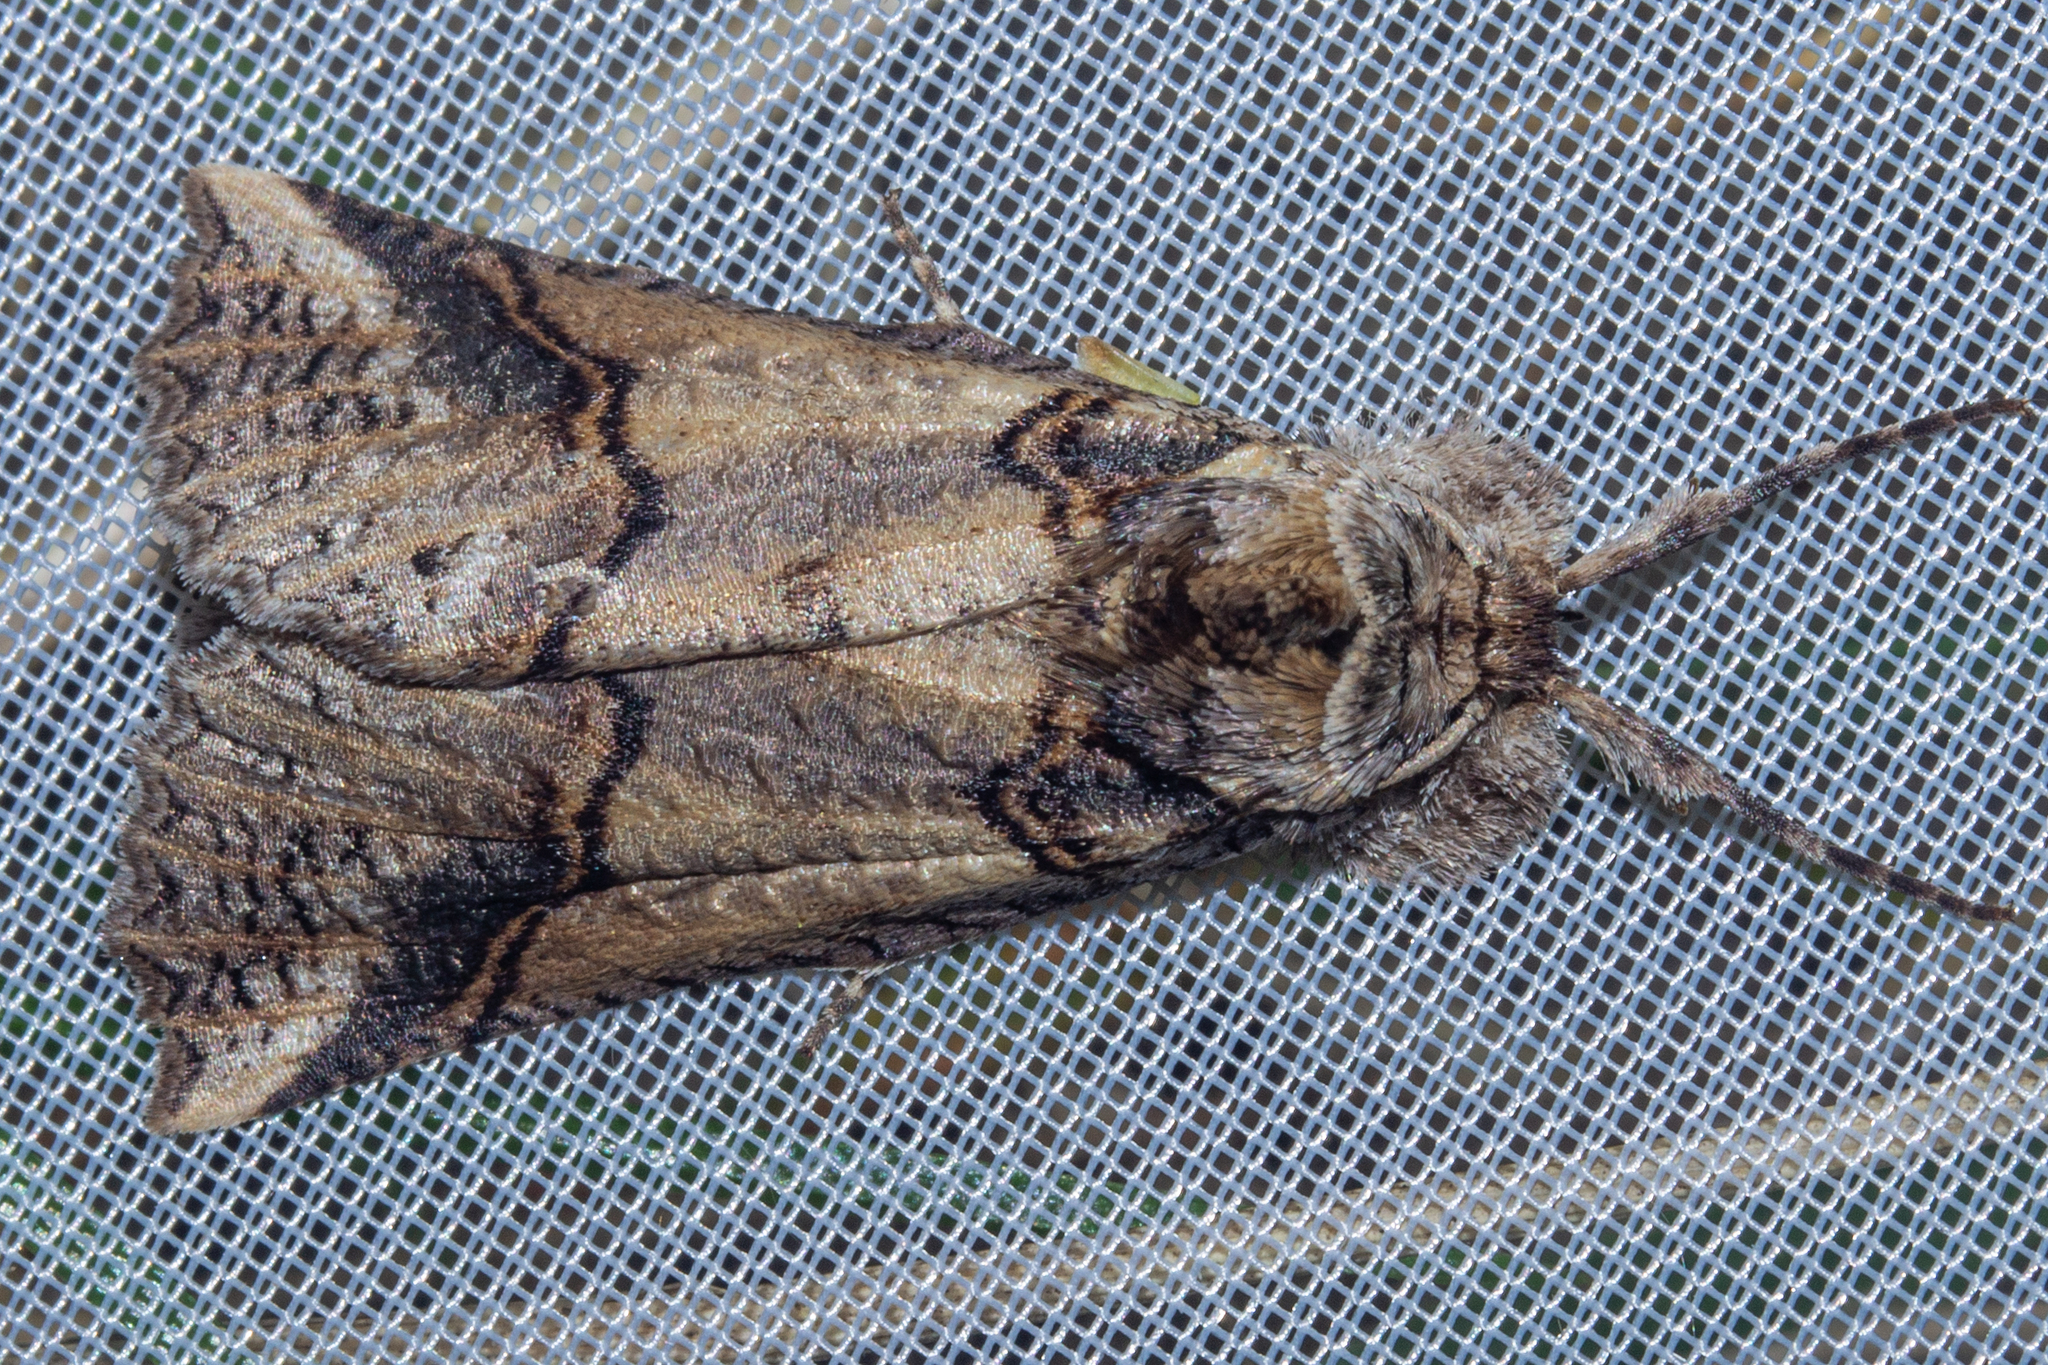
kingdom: Animalia
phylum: Arthropoda
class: Insecta
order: Lepidoptera
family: Geometridae
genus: Declana
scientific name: Declana
